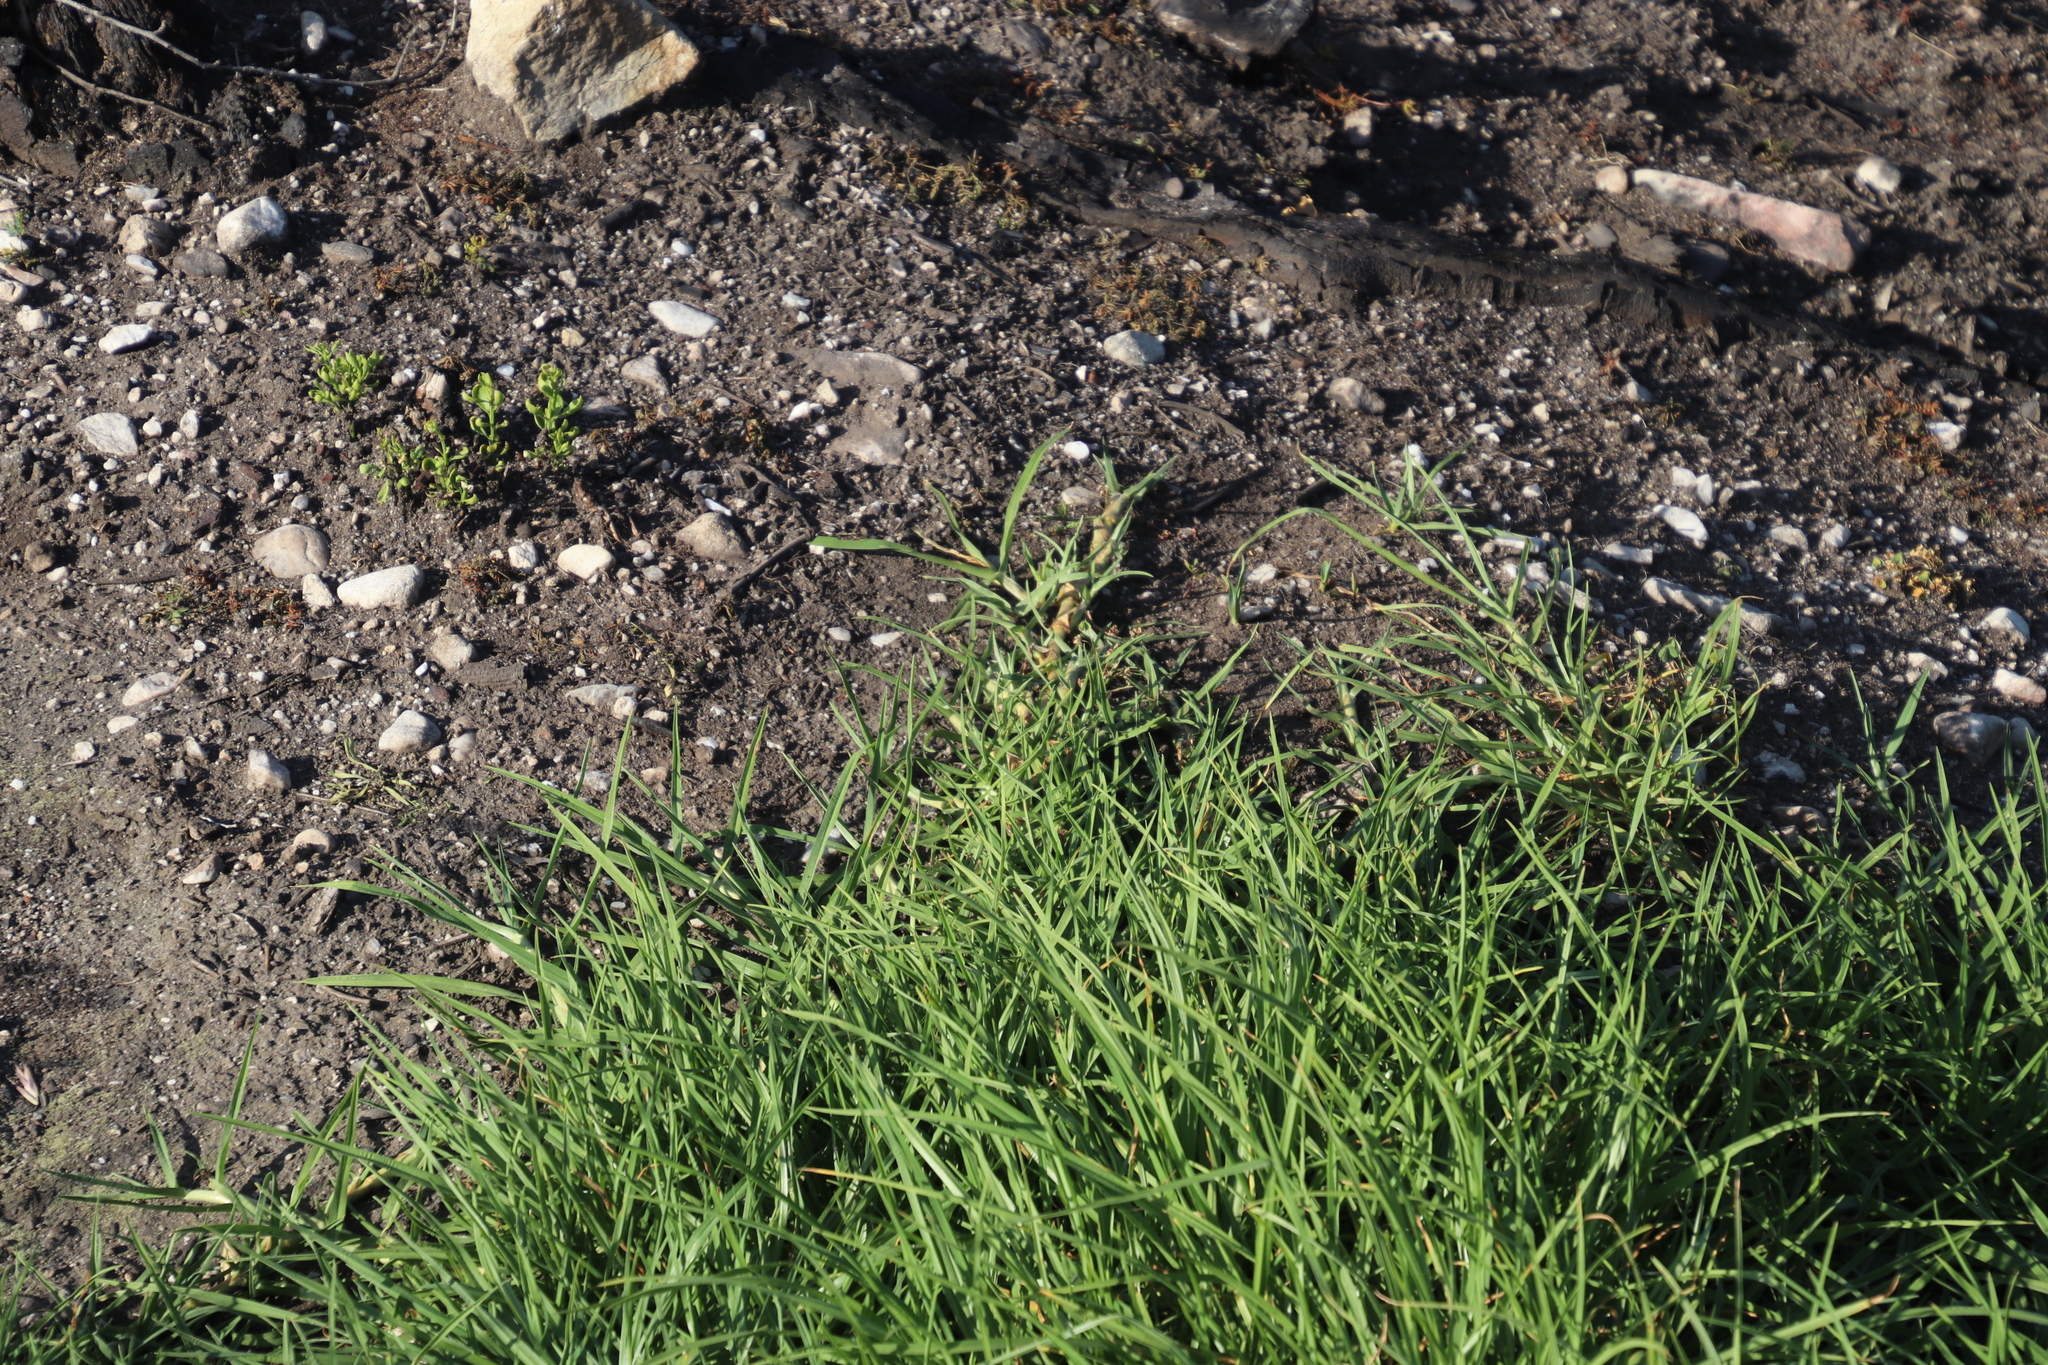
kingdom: Plantae
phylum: Tracheophyta
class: Liliopsida
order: Poales
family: Poaceae
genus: Cenchrus
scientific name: Cenchrus clandestinus
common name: Kikuyugrass
